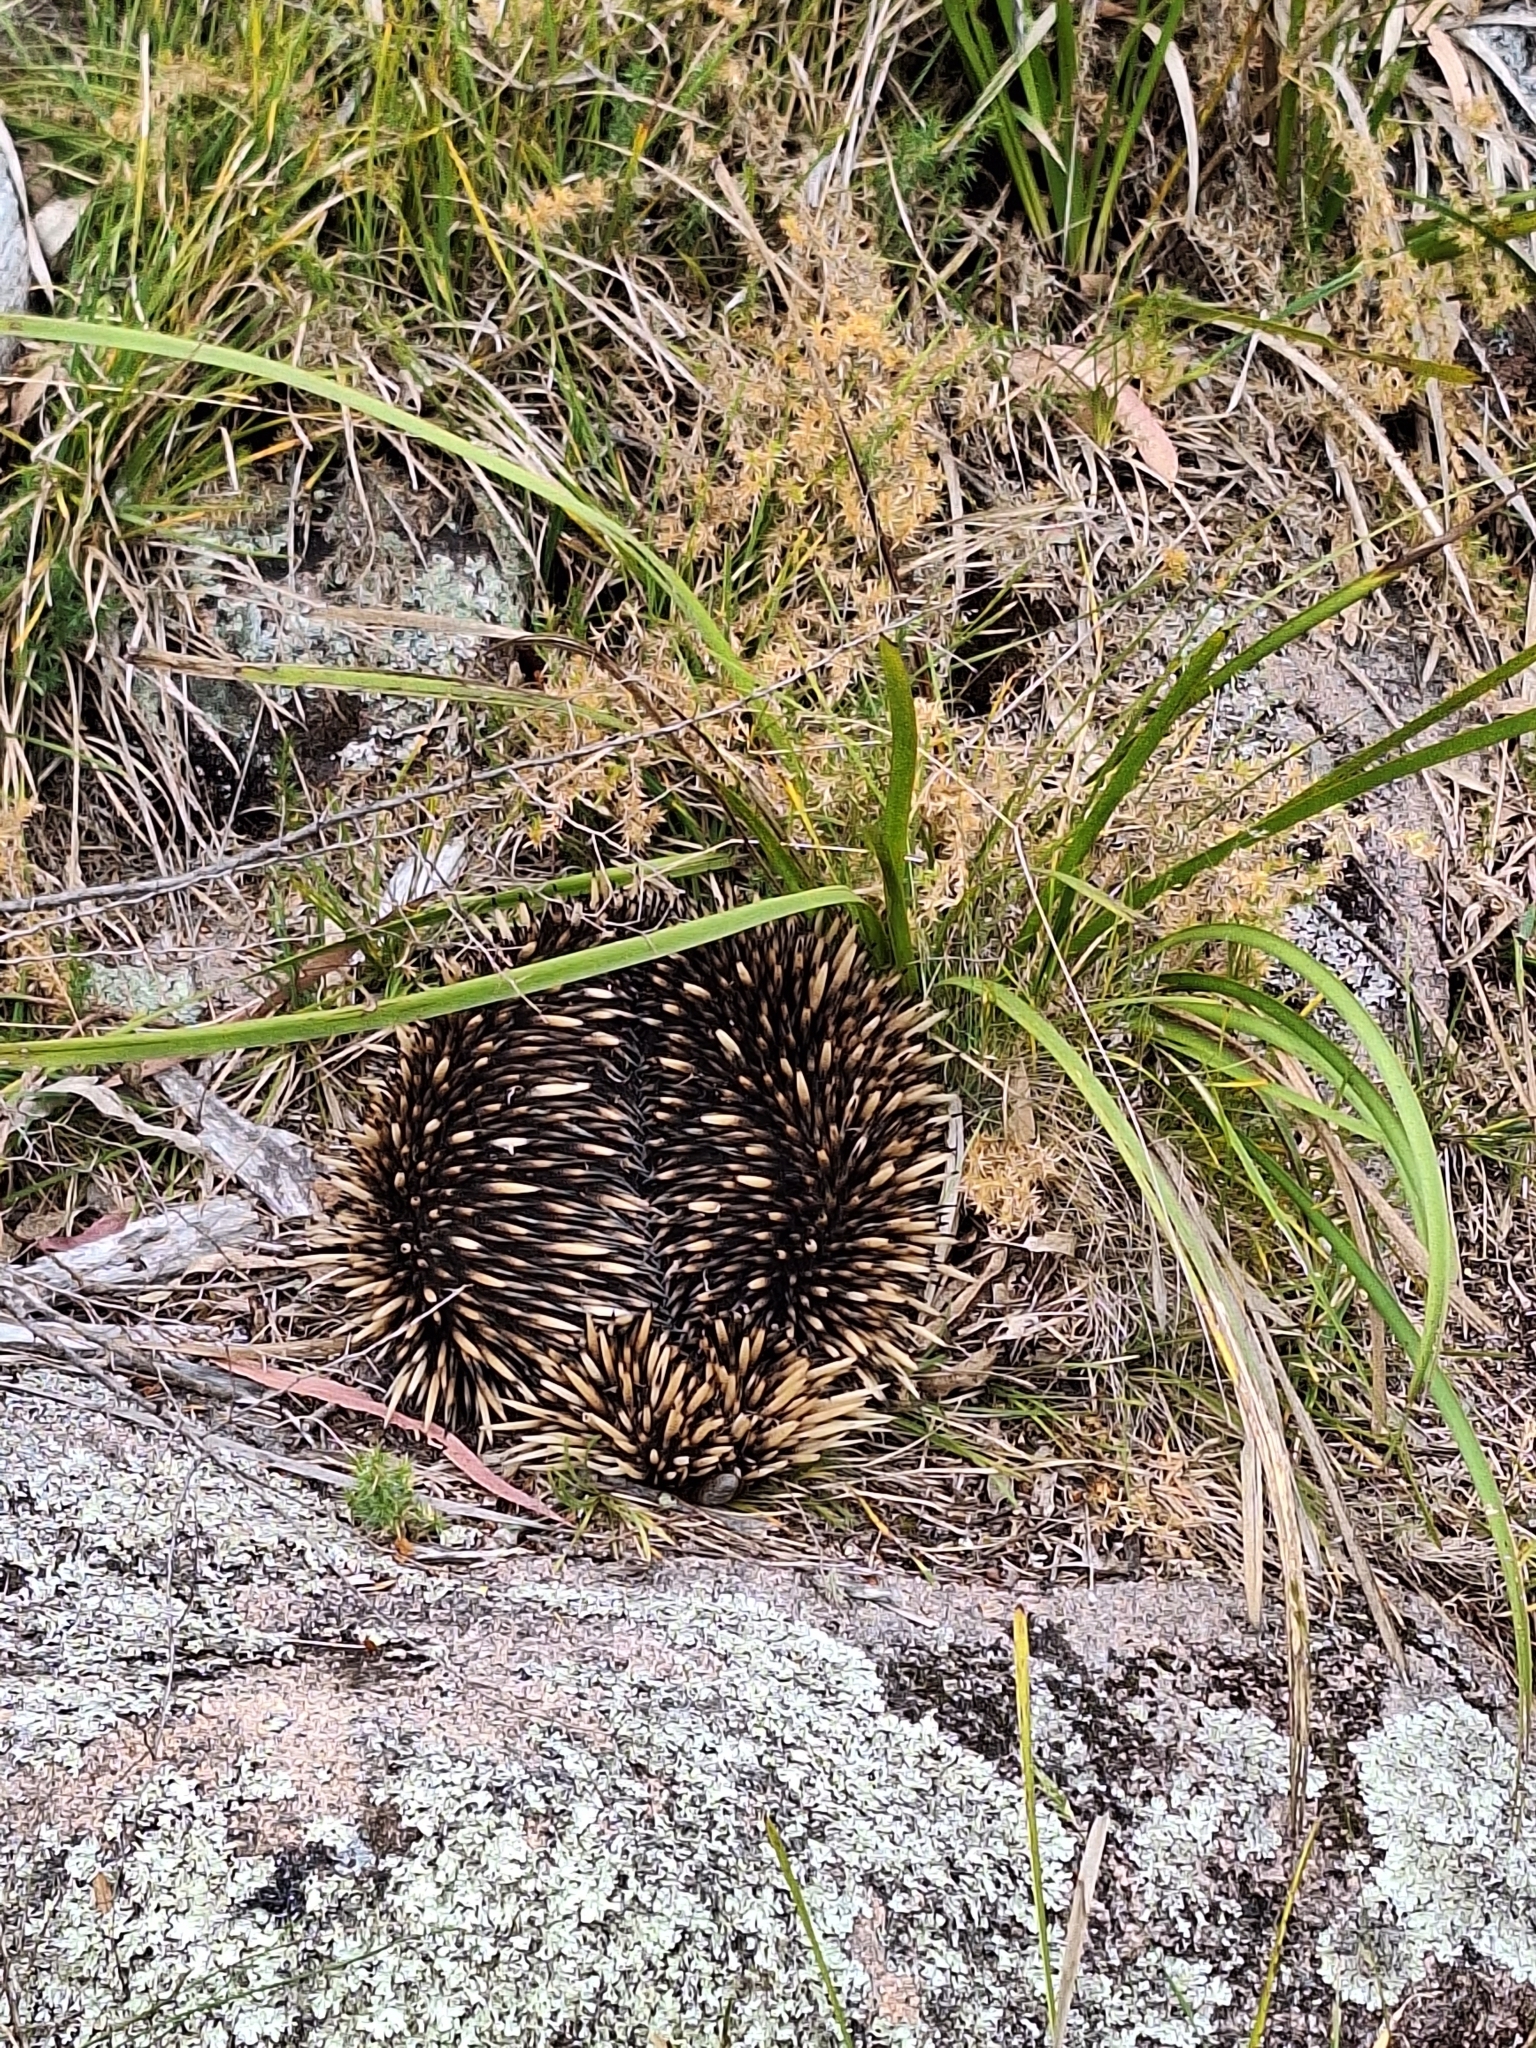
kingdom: Animalia
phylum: Chordata
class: Mammalia
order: Monotremata
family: Tachyglossidae
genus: Tachyglossus
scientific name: Tachyglossus aculeatus
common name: Short-beaked echidna
